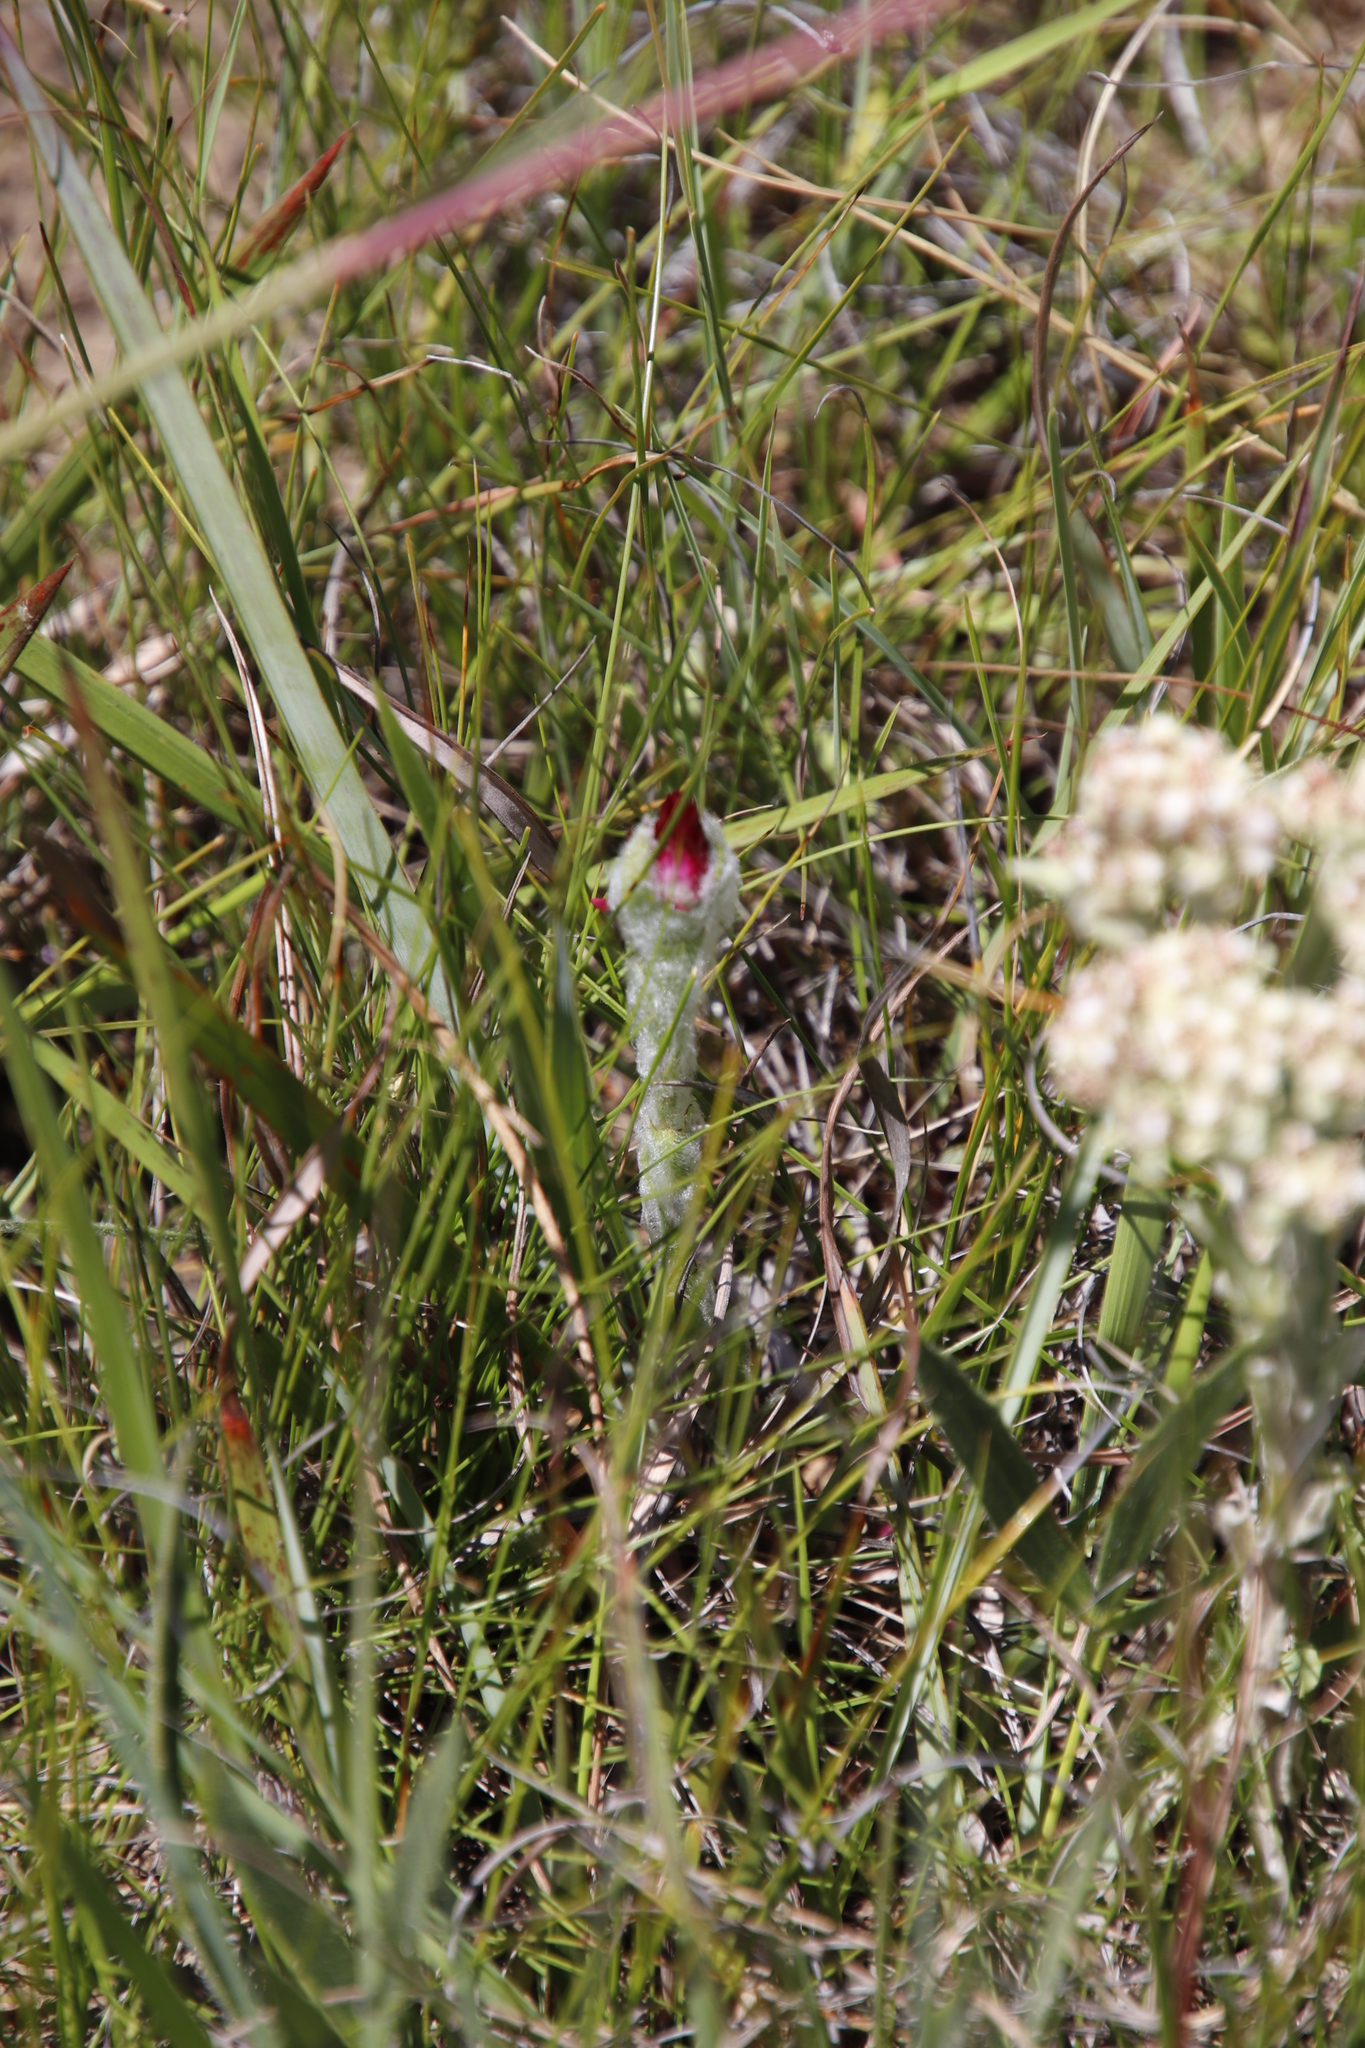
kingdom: Plantae
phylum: Tracheophyta
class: Magnoliopsida
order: Asterales
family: Asteraceae
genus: Helichrysum
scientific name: Helichrysum adenocarpum
